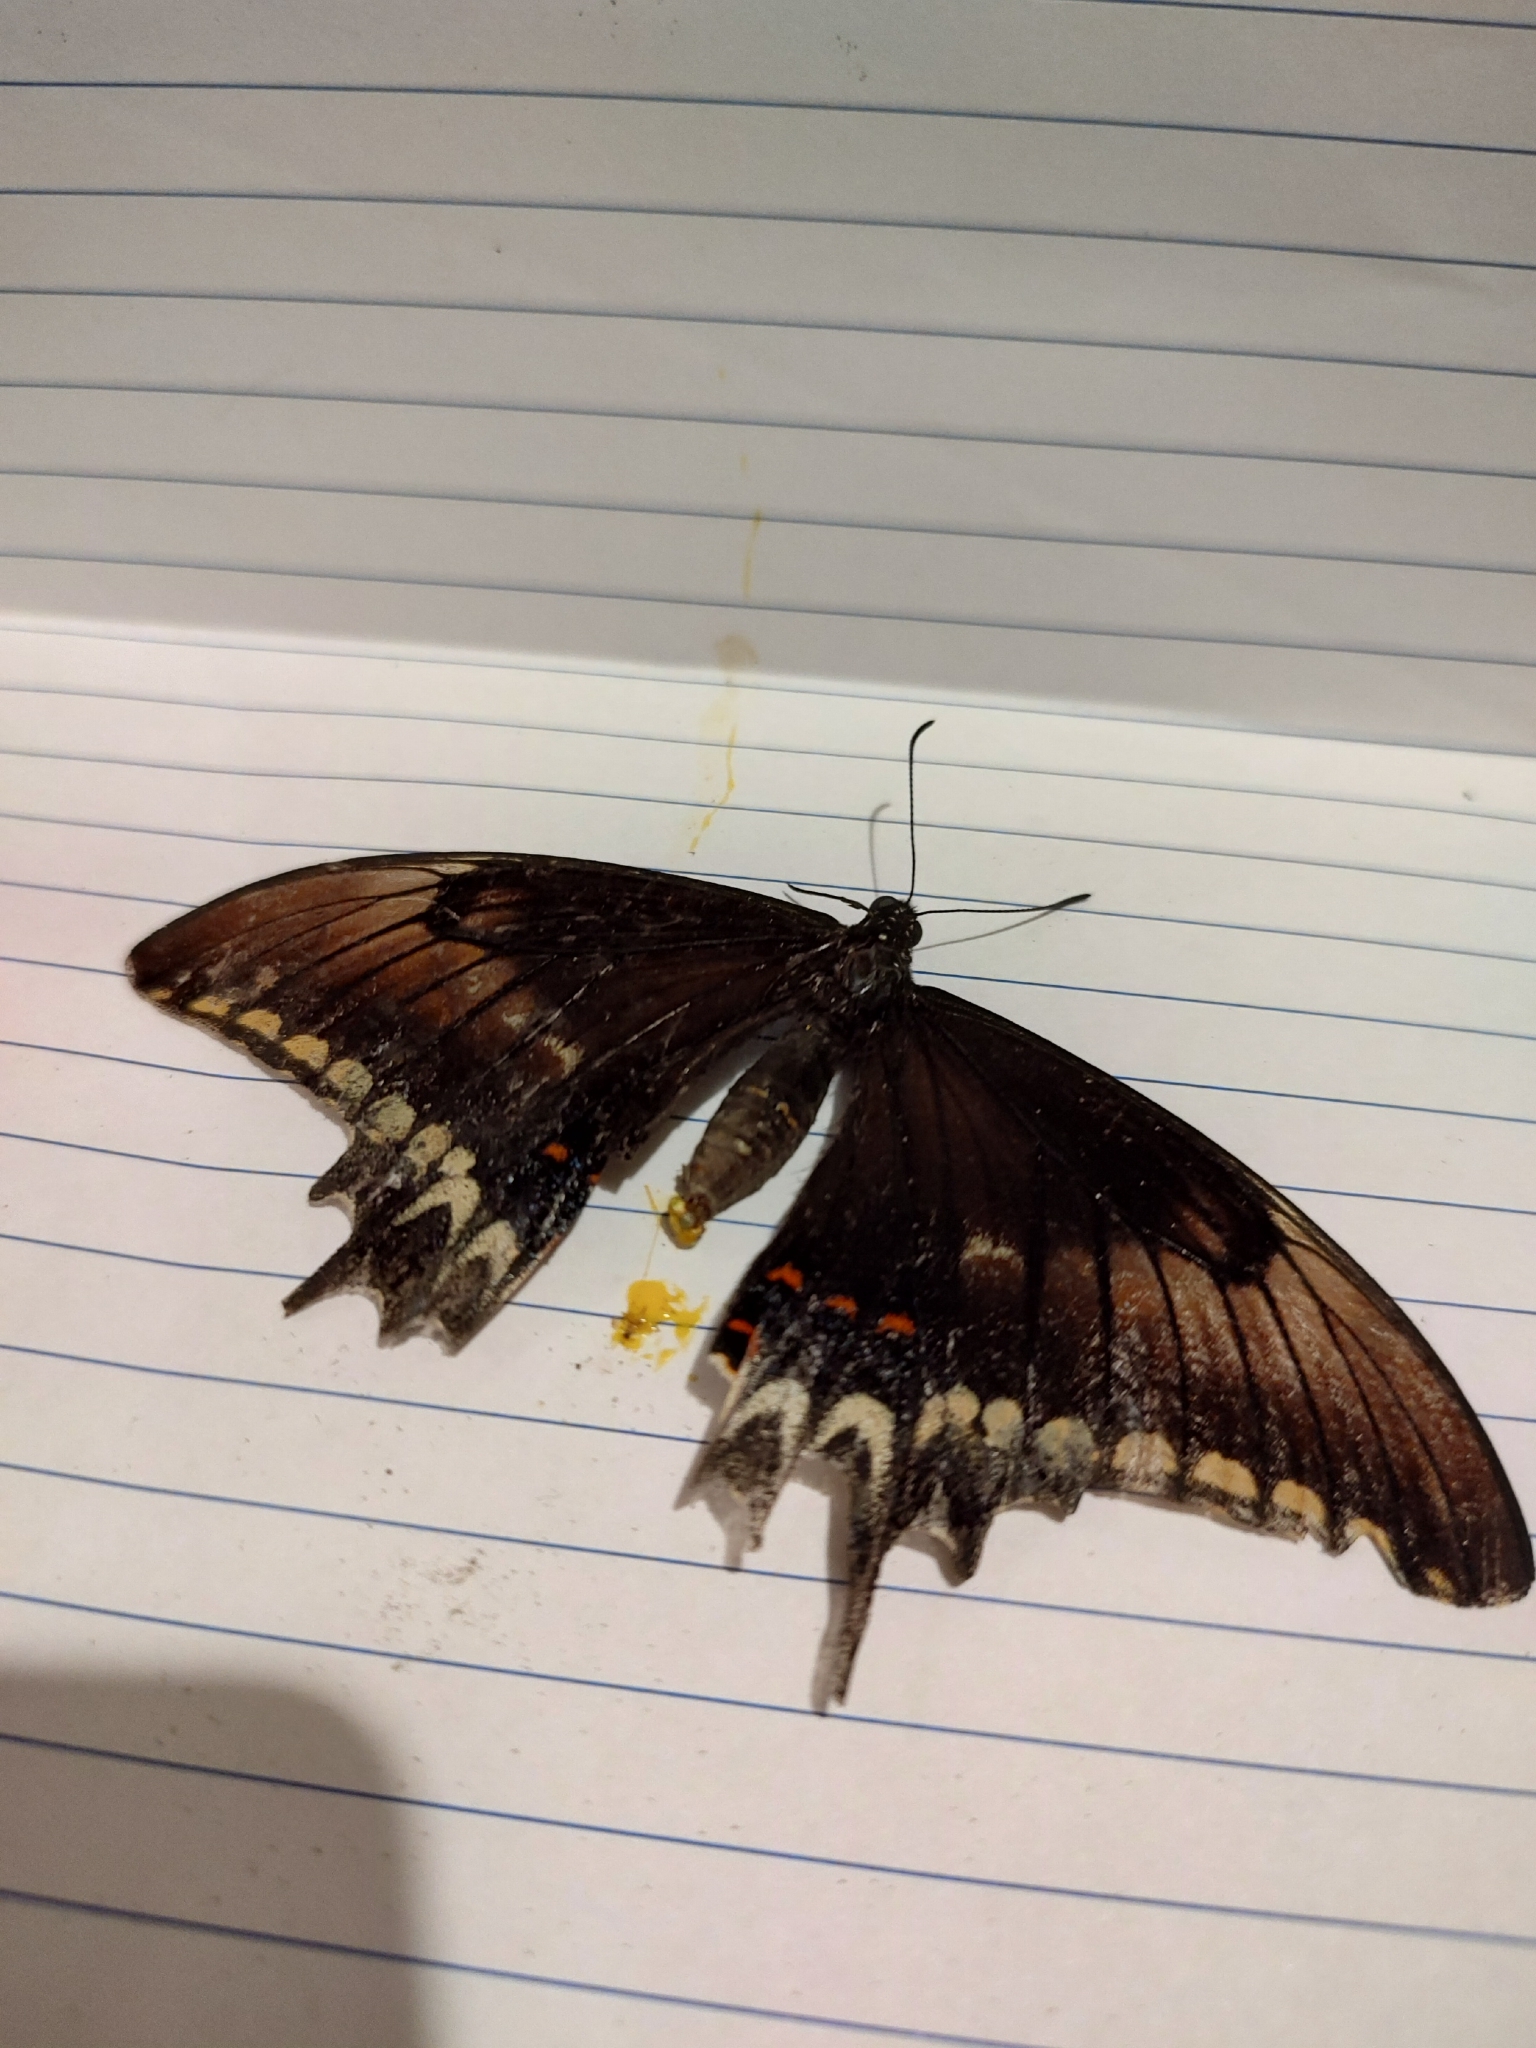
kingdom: Animalia
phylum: Arthropoda
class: Insecta
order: Lepidoptera
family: Papilionidae
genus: Papilio
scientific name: Papilio astyalus
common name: Astyalus swallowtail
